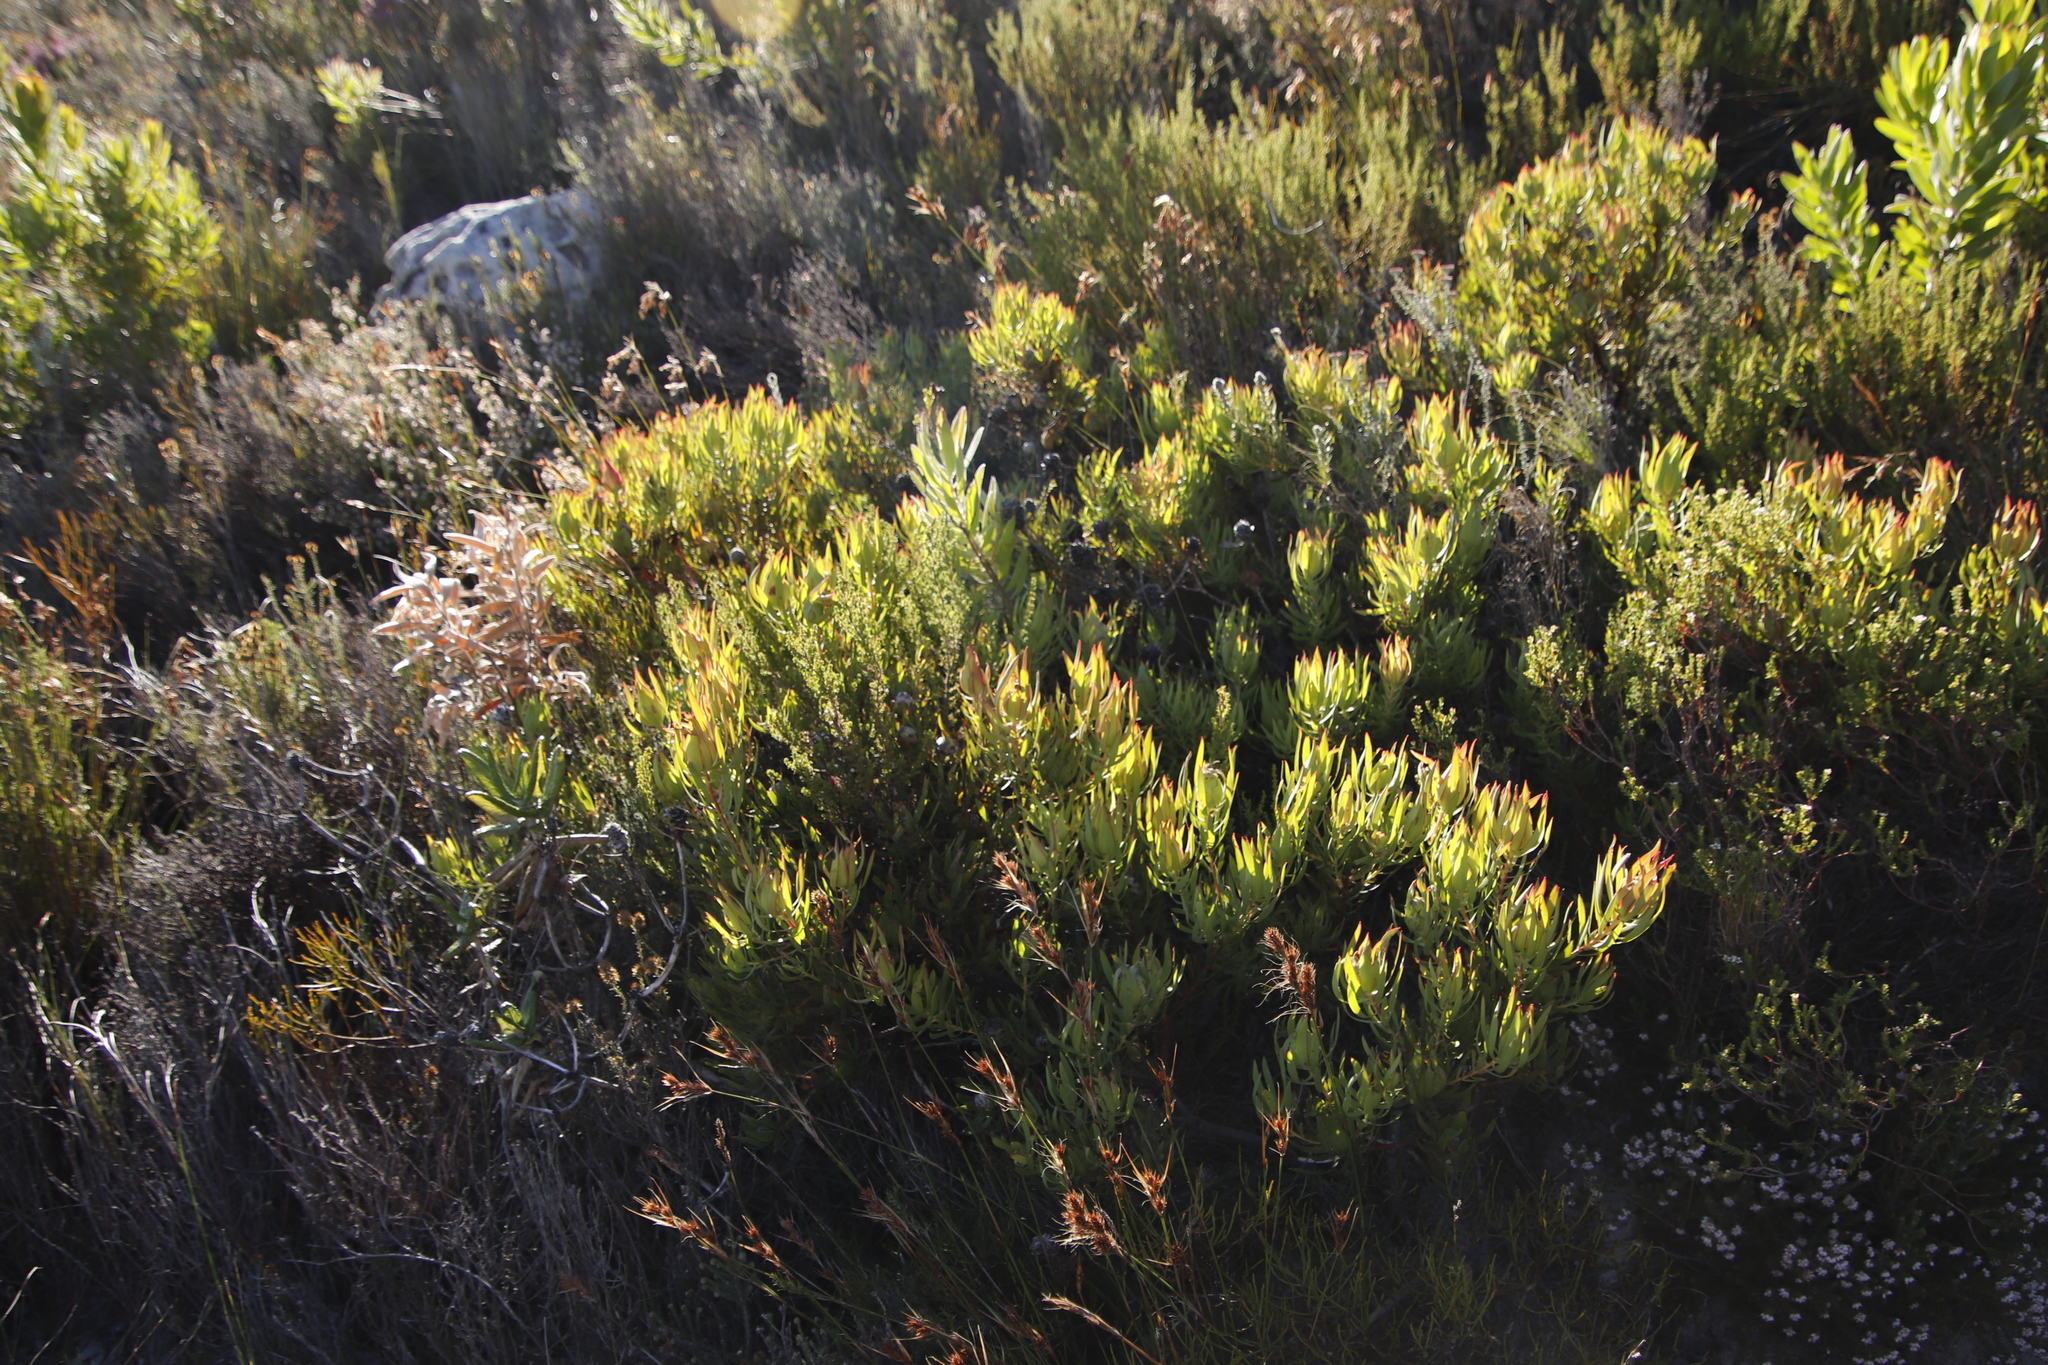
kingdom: Plantae
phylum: Tracheophyta
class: Magnoliopsida
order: Proteales
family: Proteaceae
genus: Leucadendron
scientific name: Leucadendron salignum
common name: Common sunshine conebush
